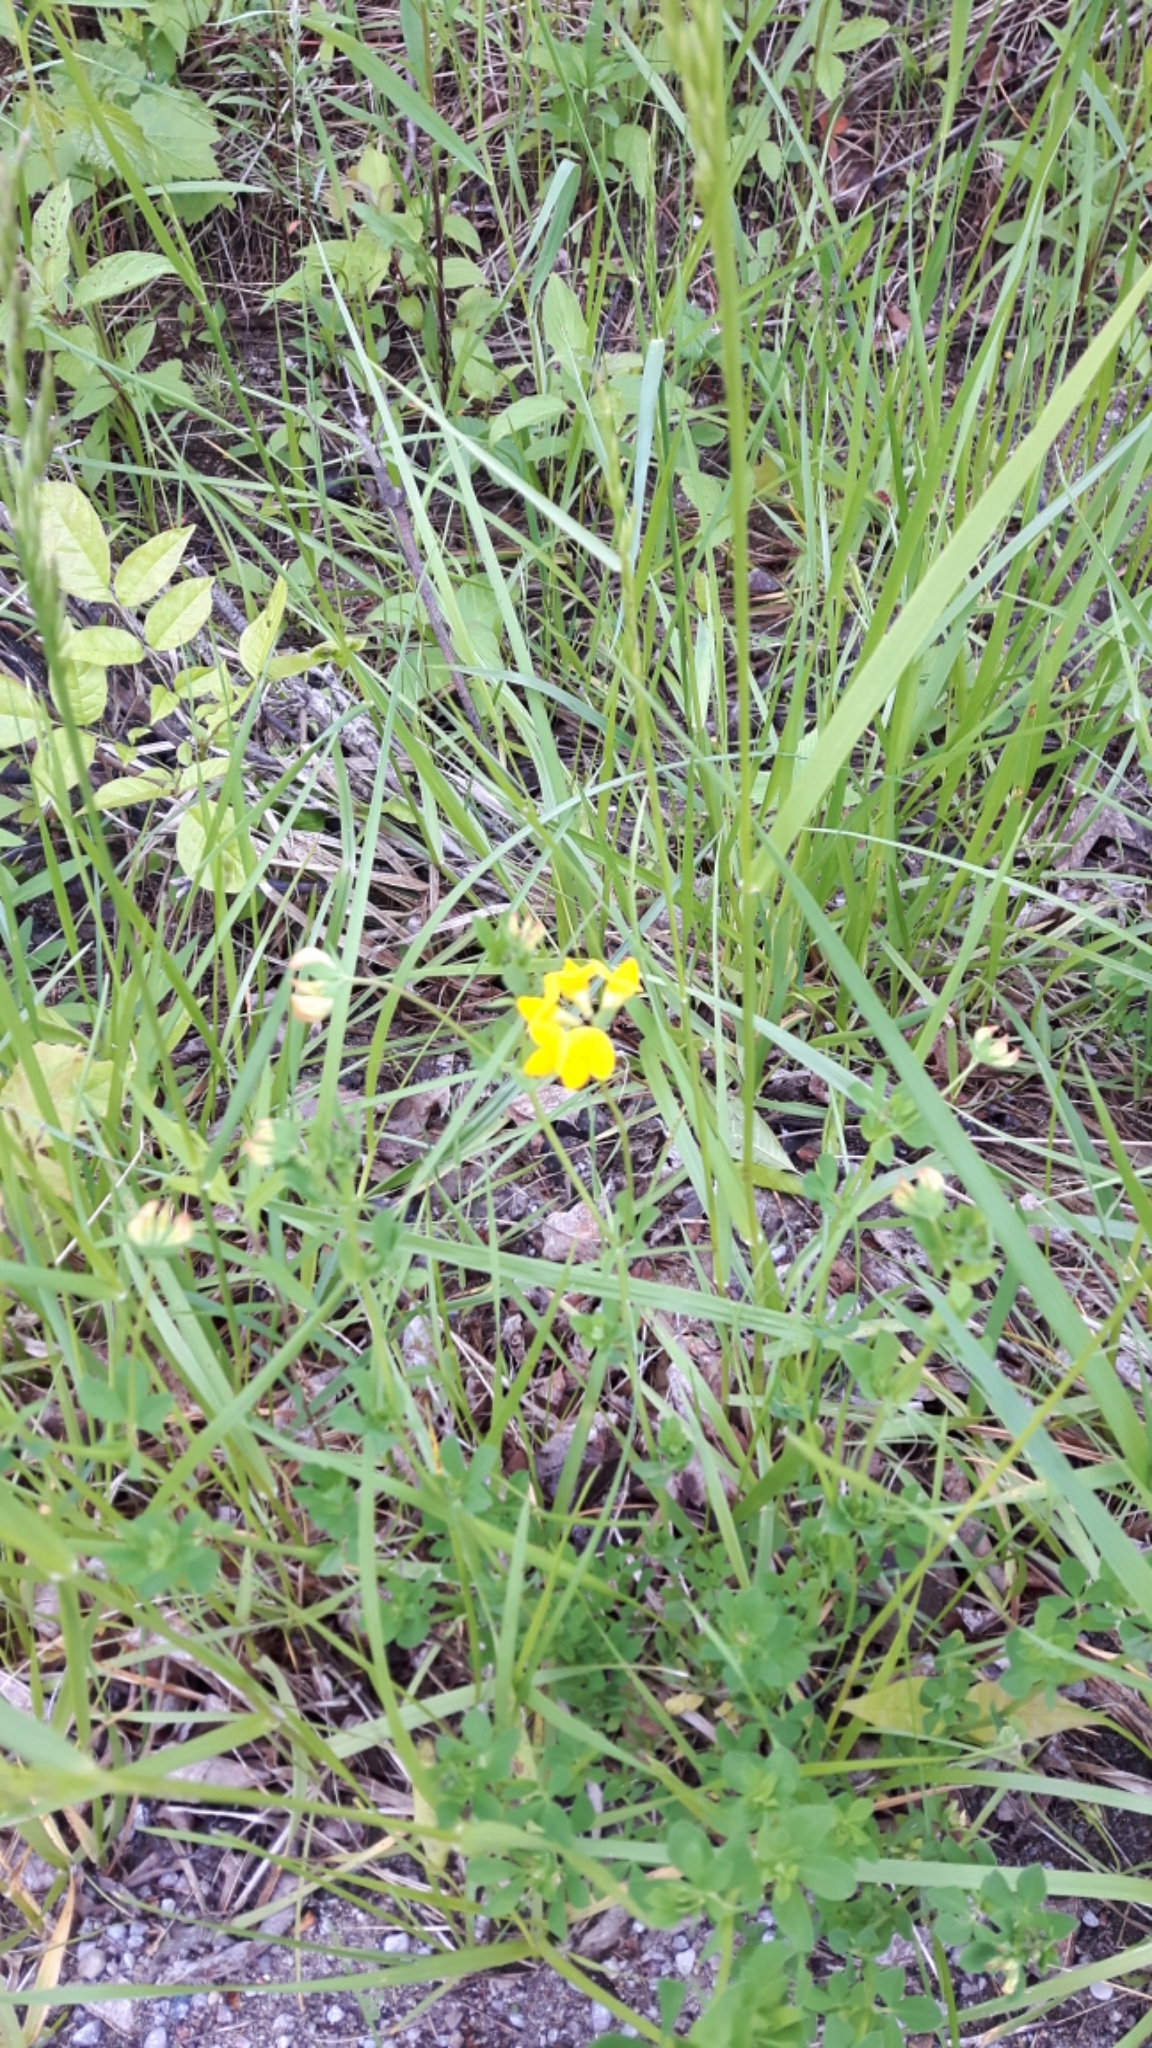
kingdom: Plantae
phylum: Tracheophyta
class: Magnoliopsida
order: Fabales
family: Fabaceae
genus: Lotus
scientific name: Lotus corniculatus
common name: Common bird's-foot-trefoil
